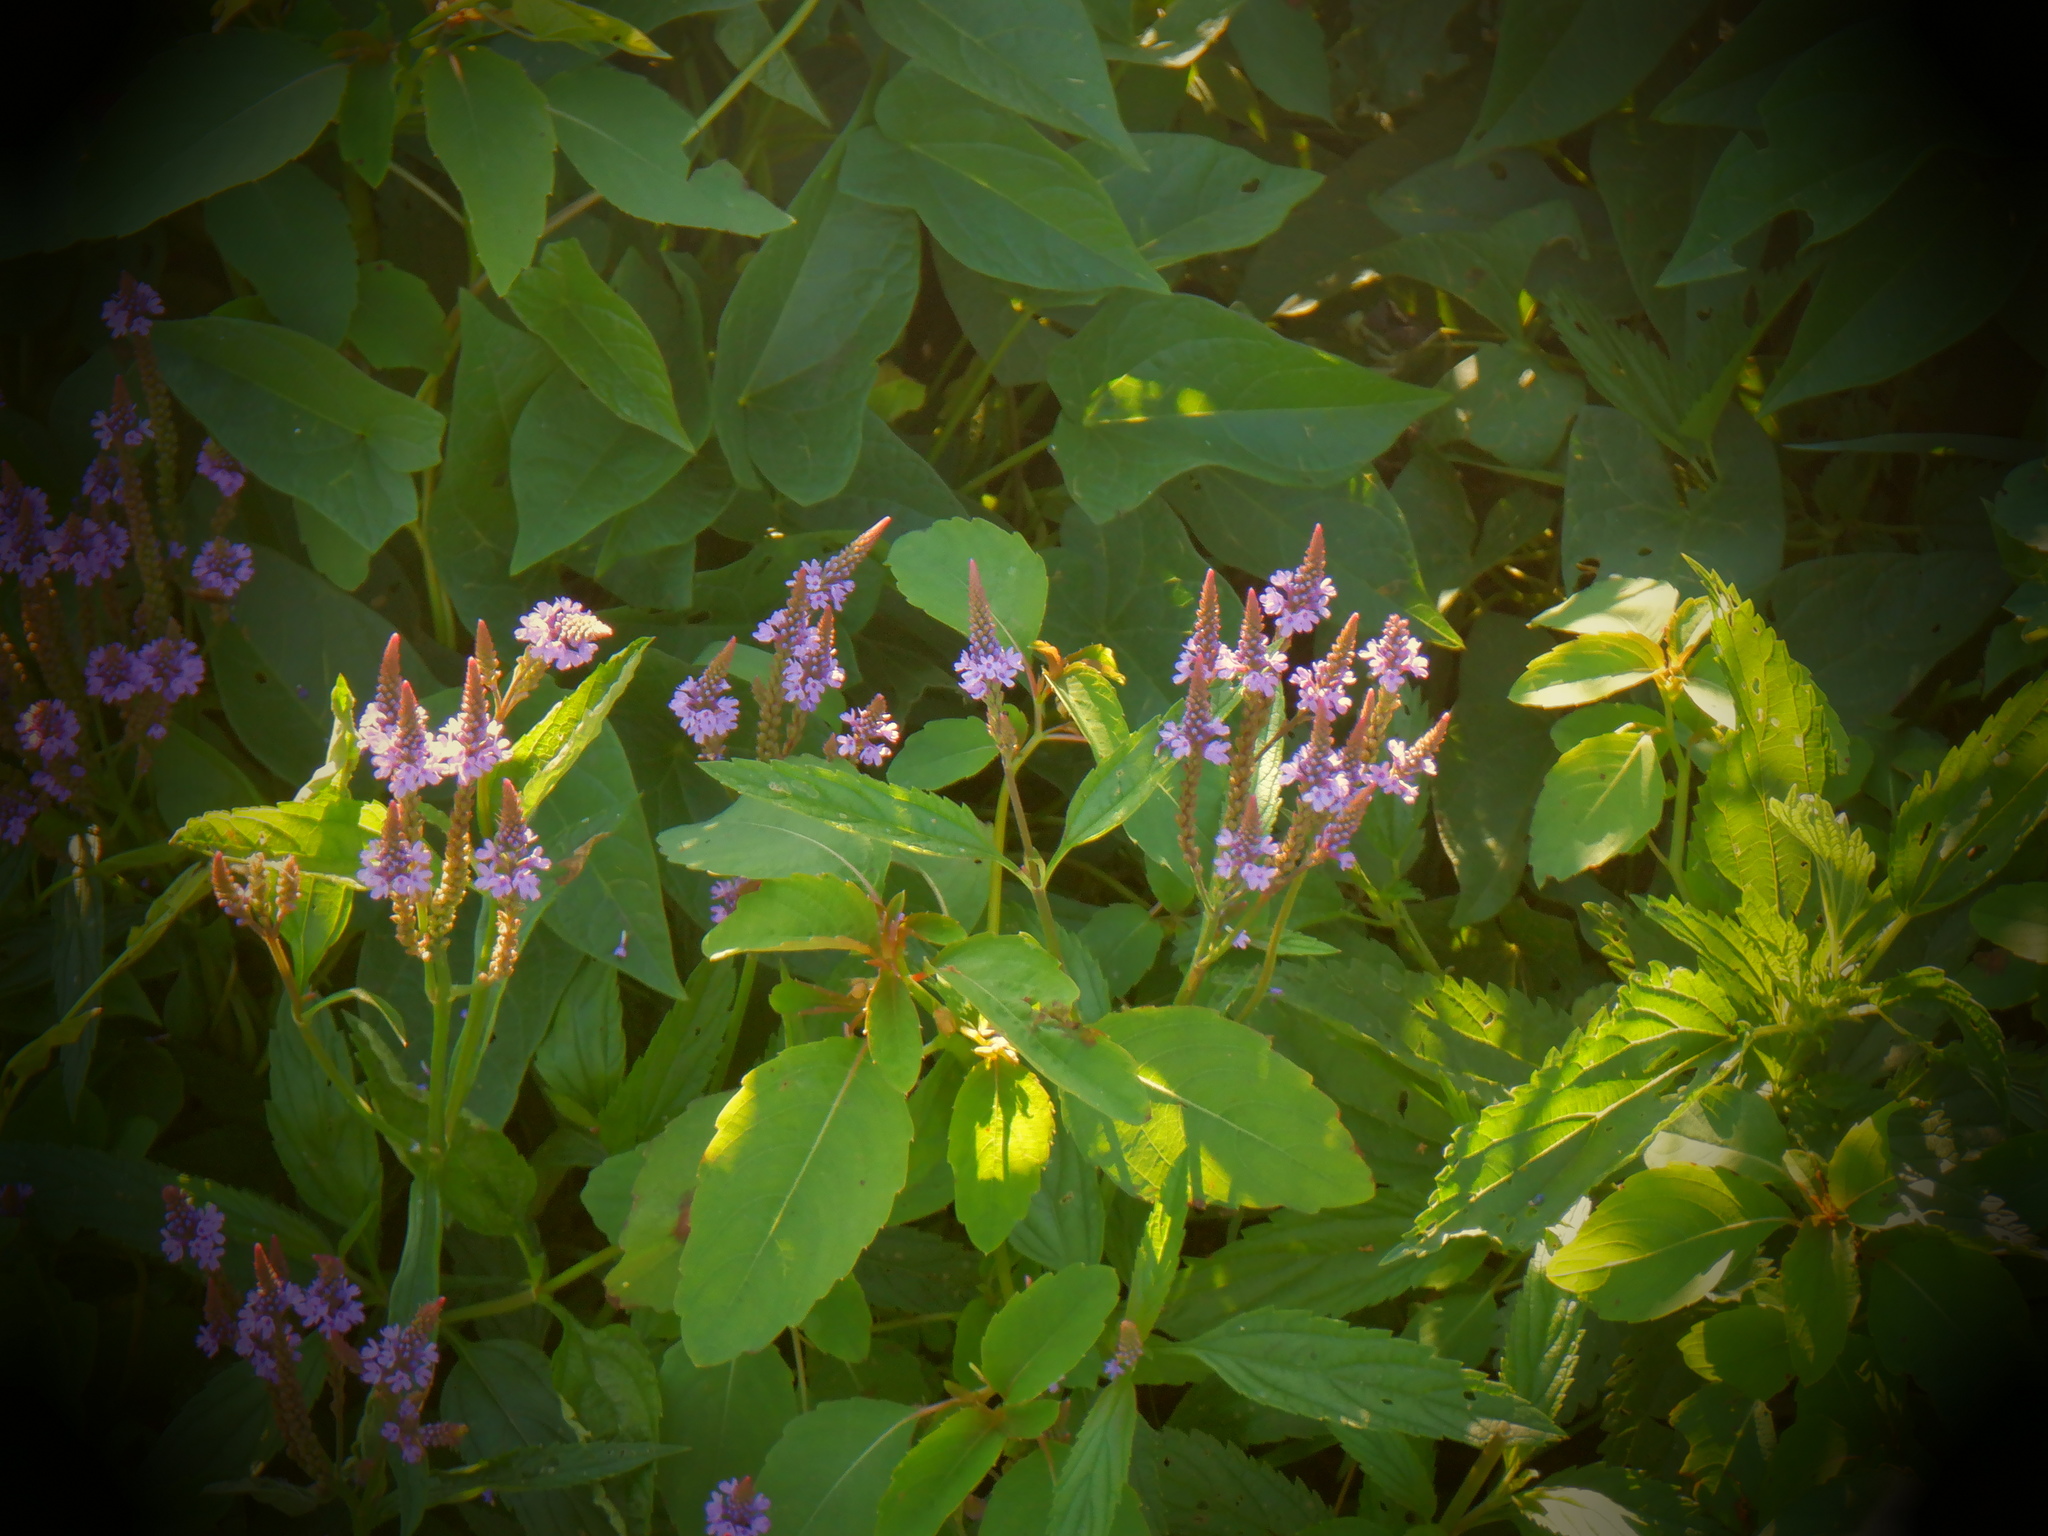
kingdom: Plantae
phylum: Tracheophyta
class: Magnoliopsida
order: Lamiales
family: Verbenaceae
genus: Verbena
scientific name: Verbena hastata
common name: American blue vervain
